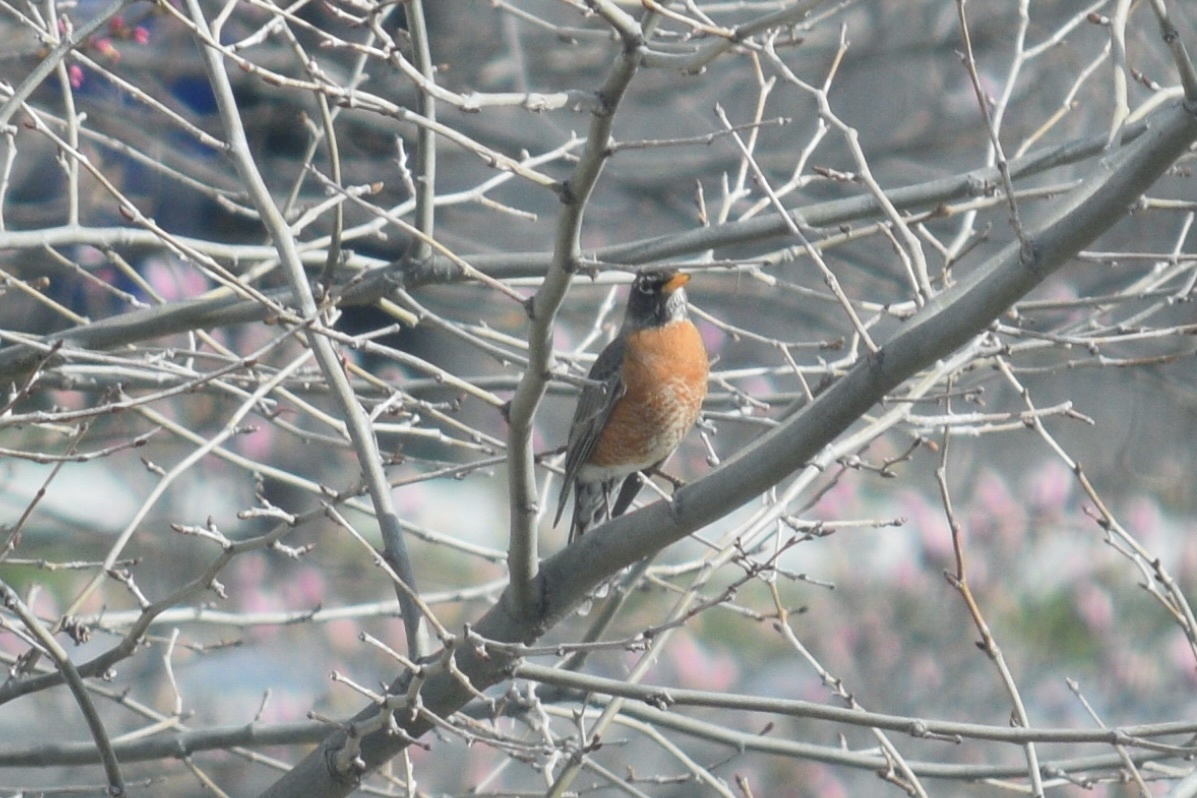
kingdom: Animalia
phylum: Chordata
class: Aves
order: Passeriformes
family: Turdidae
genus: Turdus
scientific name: Turdus migratorius
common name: American robin
